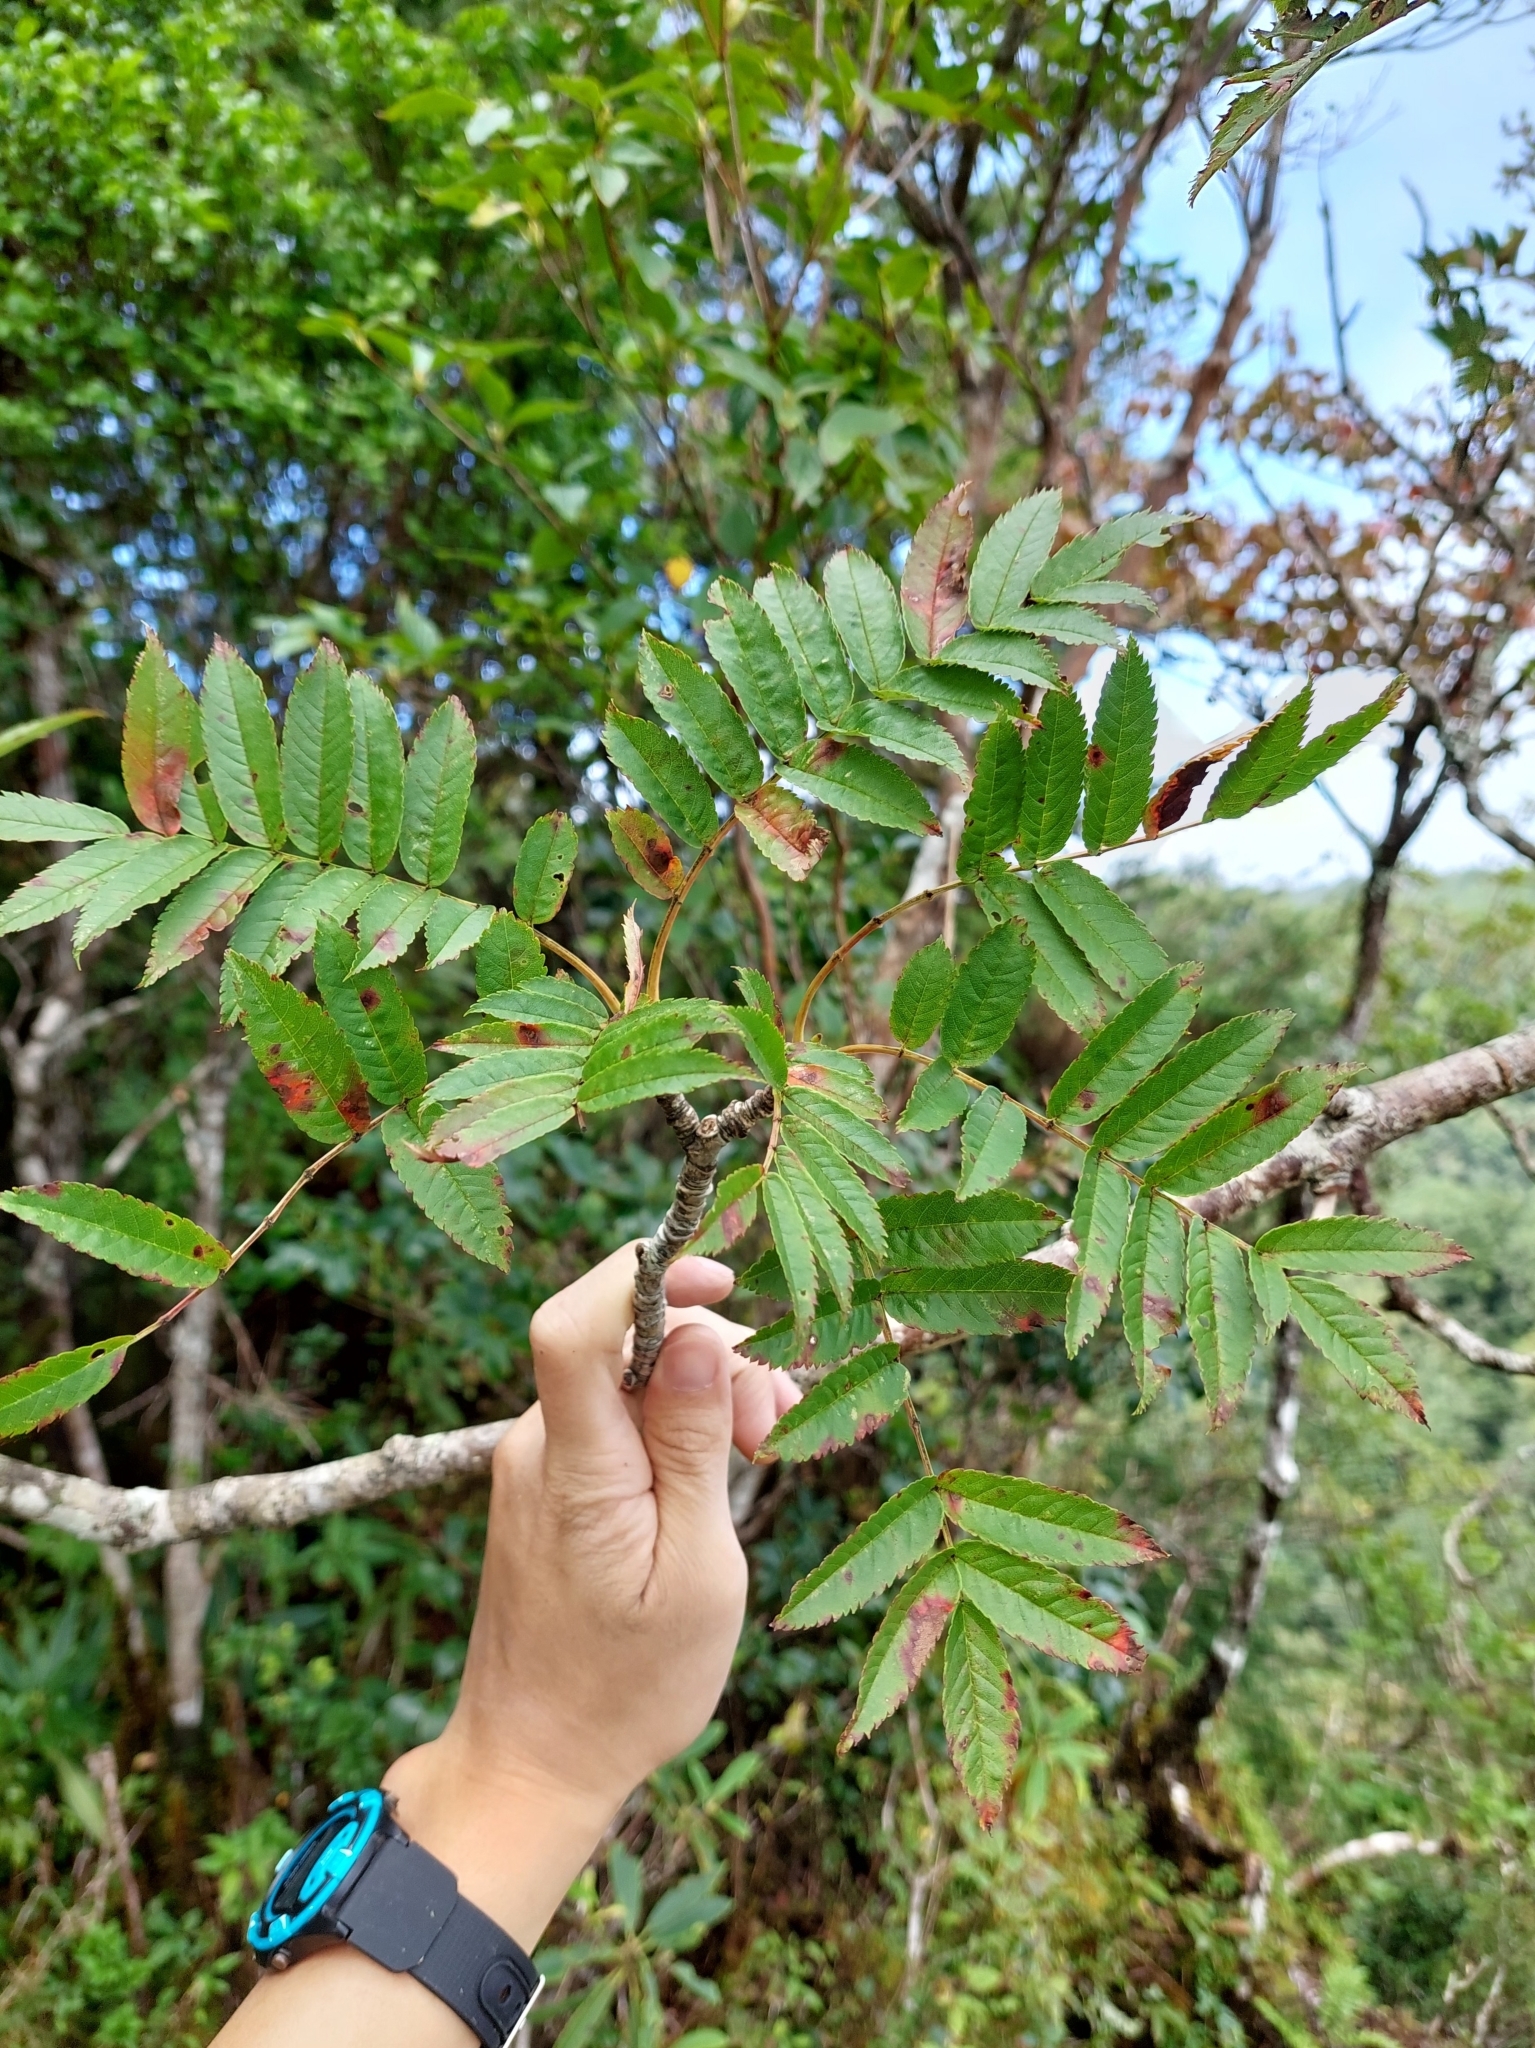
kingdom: Plantae
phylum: Tracheophyta
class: Magnoliopsida
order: Rosales
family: Rosaceae
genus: Sorbus
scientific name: Sorbus randaiensis
